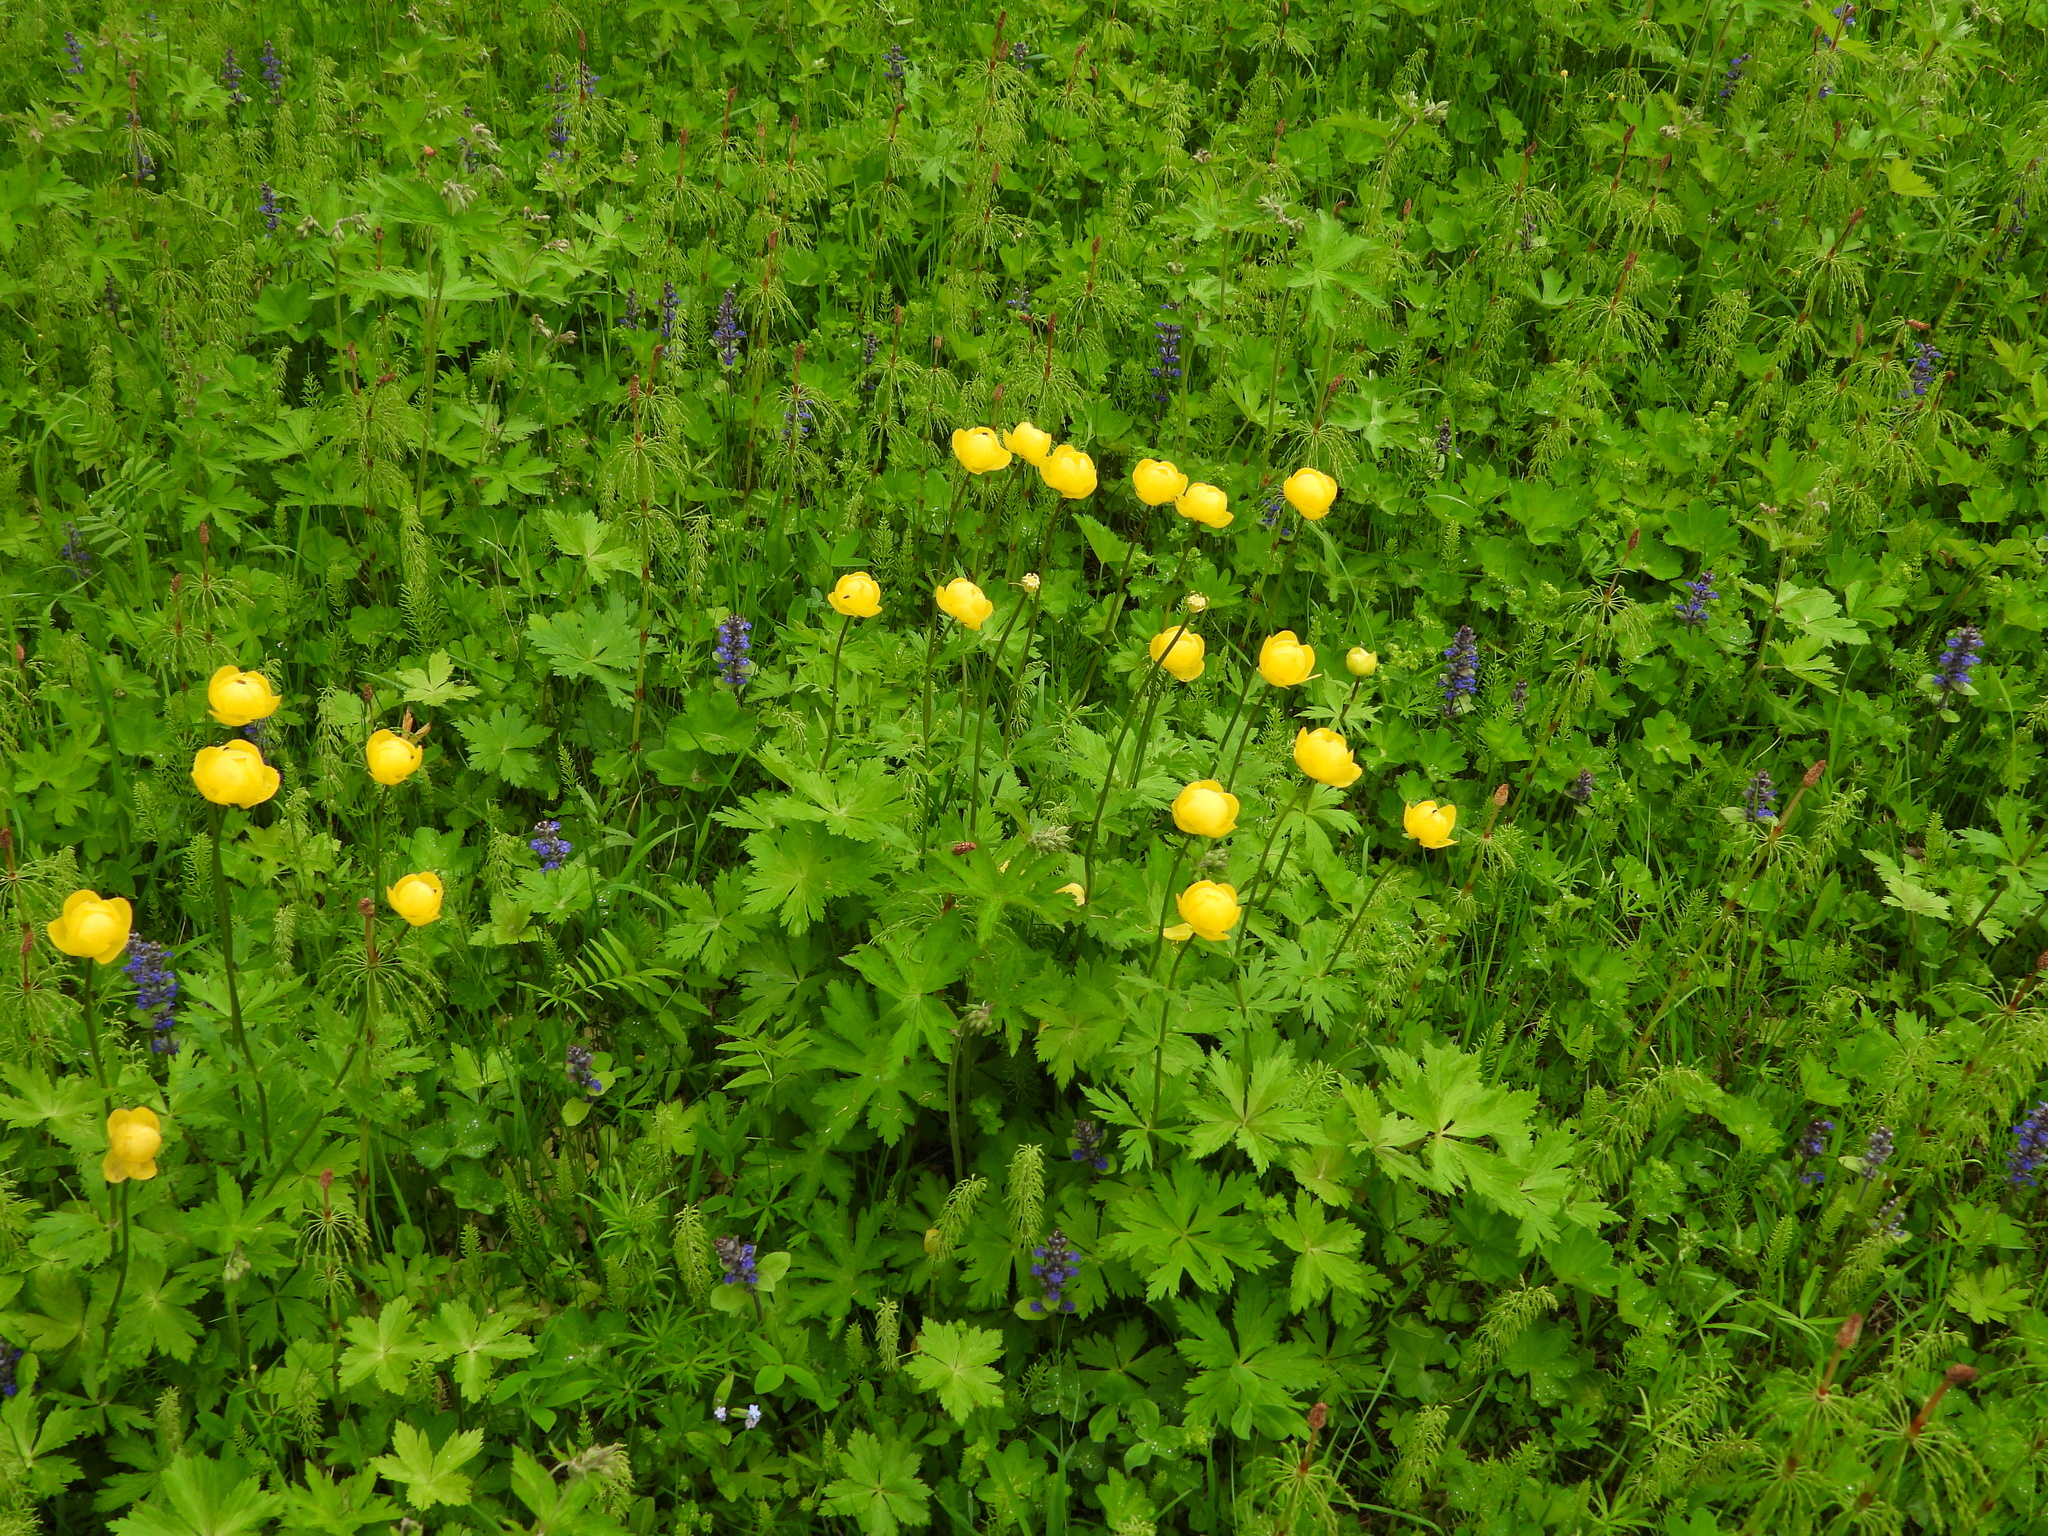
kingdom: Plantae
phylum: Tracheophyta
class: Magnoliopsida
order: Ranunculales
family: Ranunculaceae
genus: Trollius
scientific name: Trollius europaeus
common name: European globeflower
